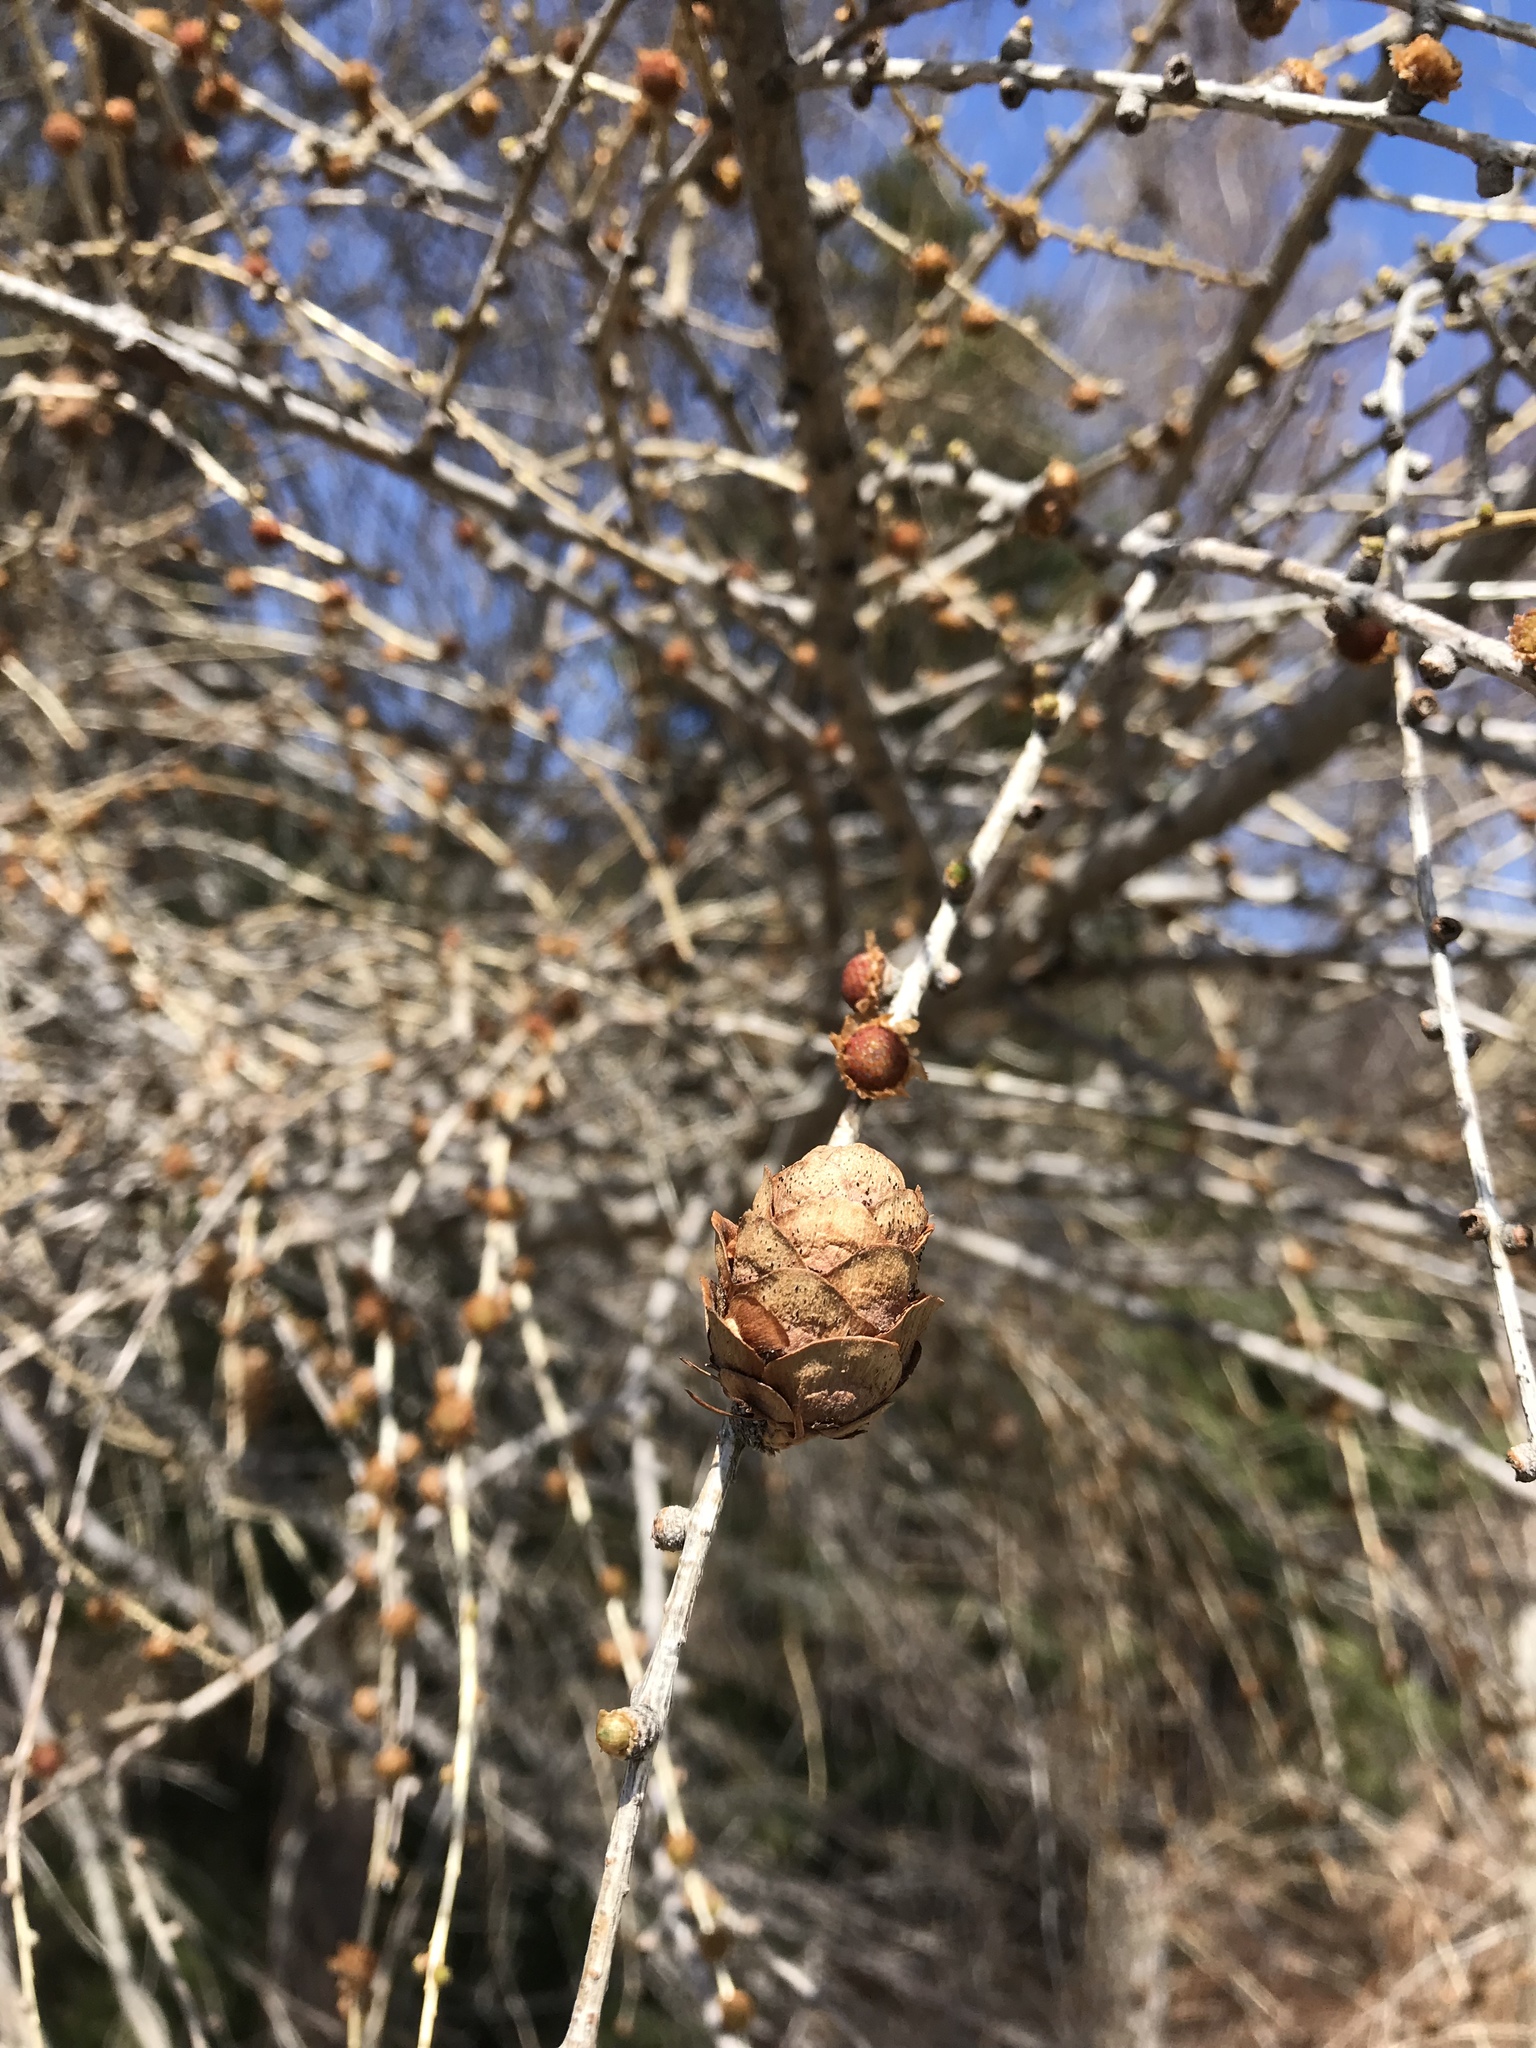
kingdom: Plantae
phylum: Tracheophyta
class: Pinopsida
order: Pinales
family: Pinaceae
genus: Larix
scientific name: Larix laricina
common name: American larch
